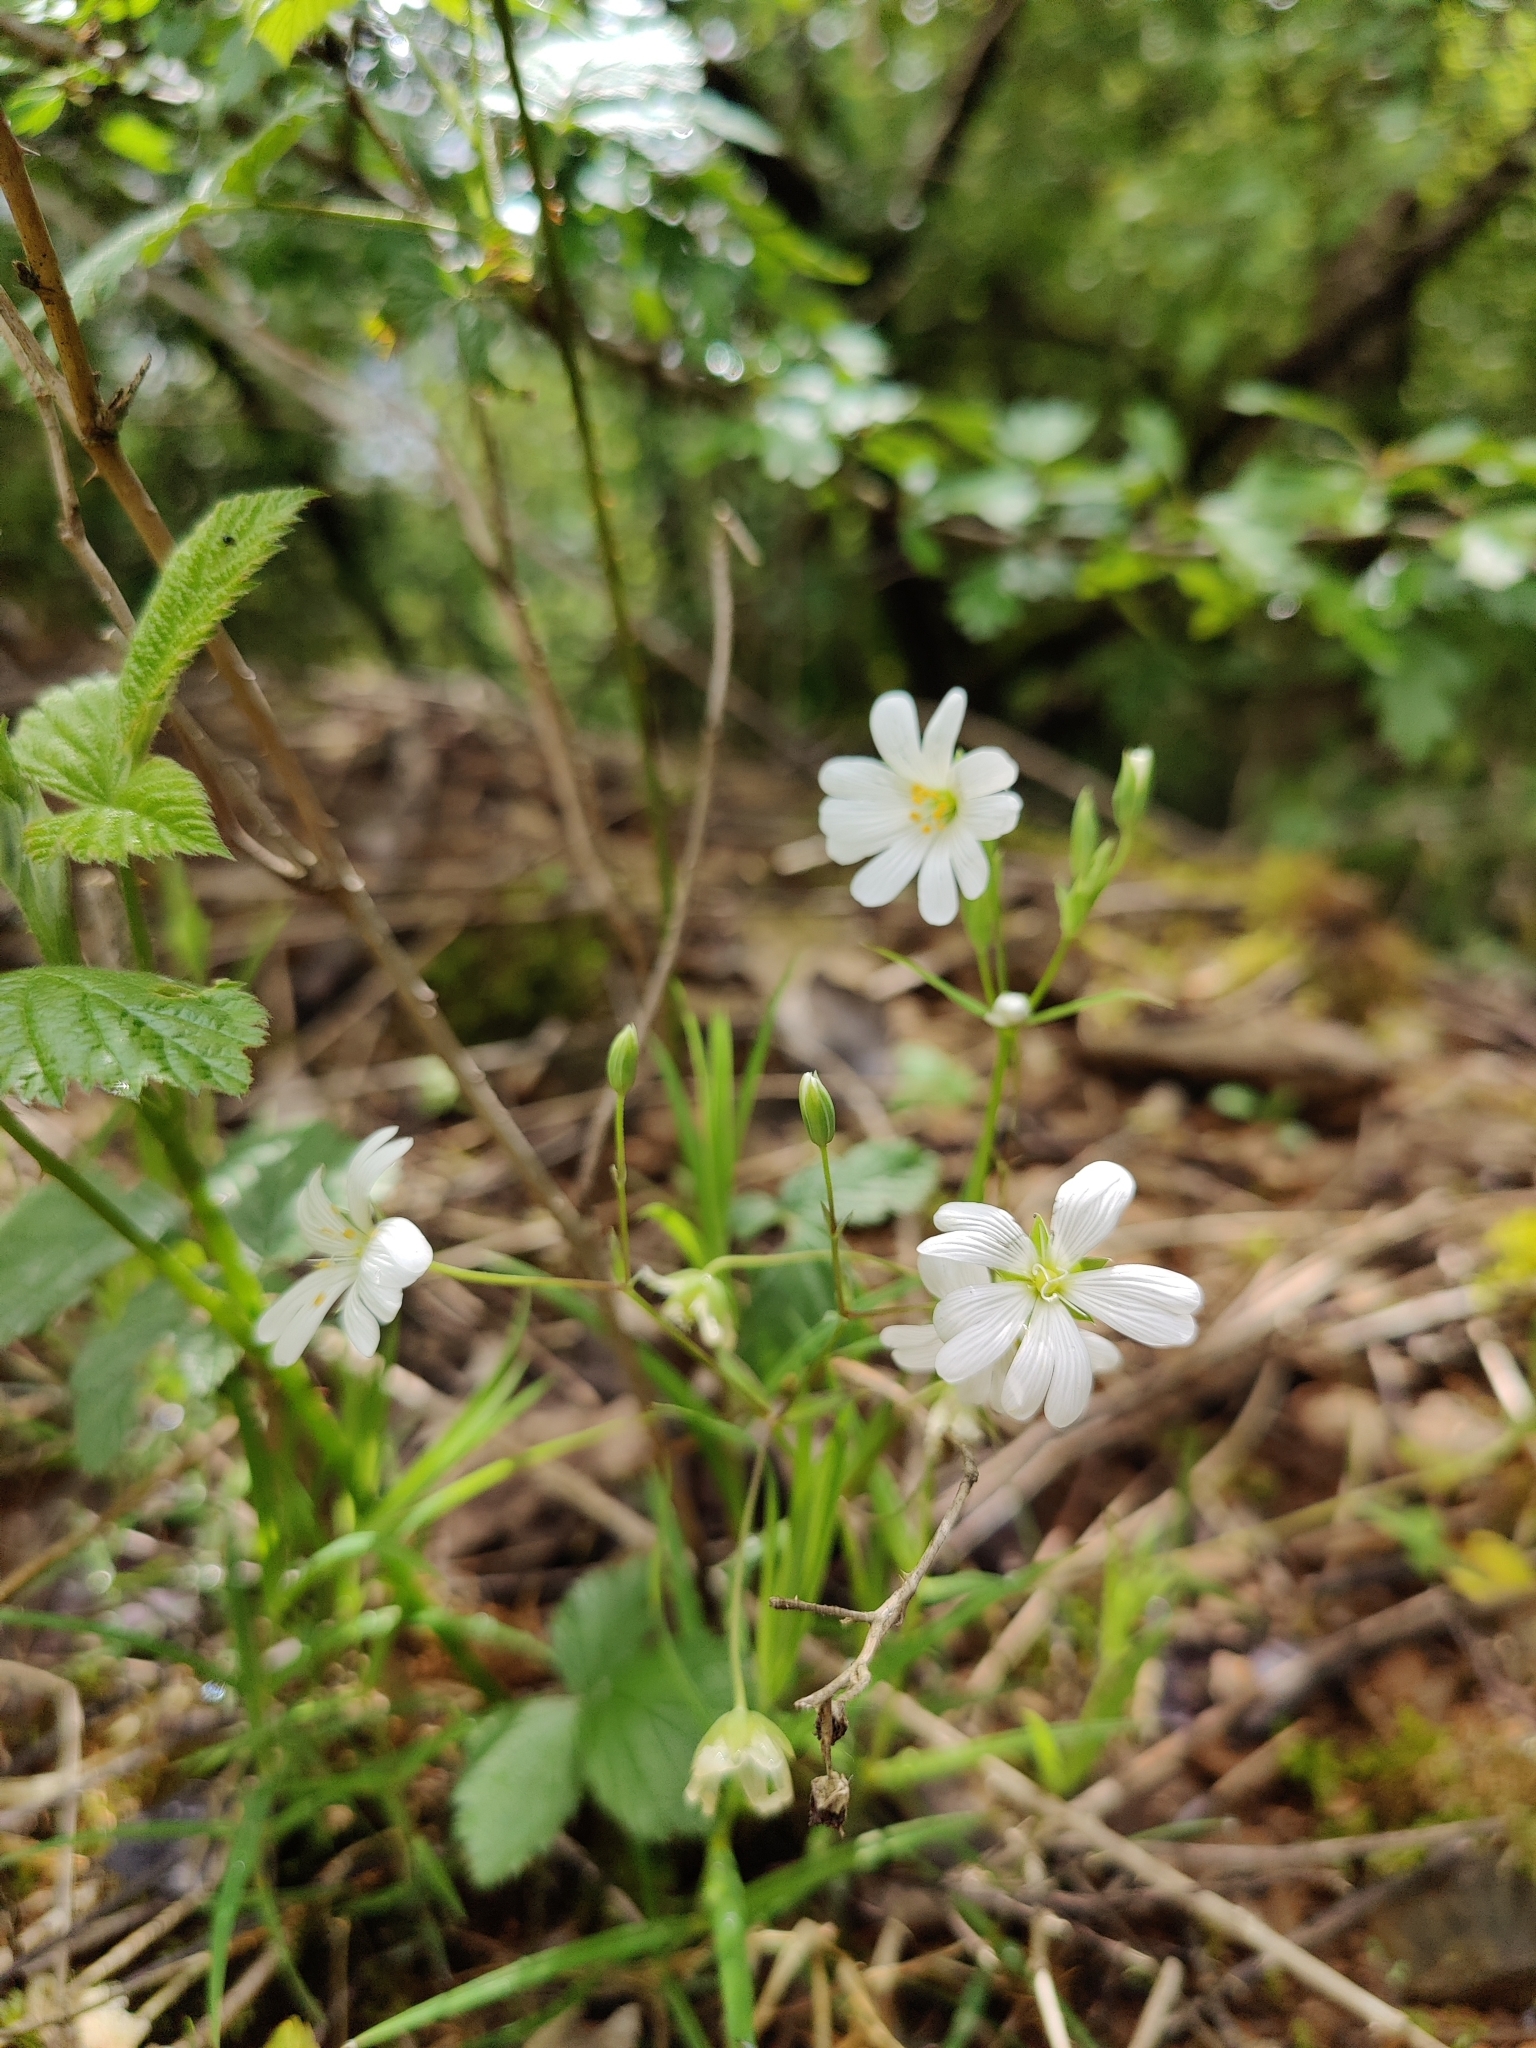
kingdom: Plantae
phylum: Tracheophyta
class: Magnoliopsida
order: Caryophyllales
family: Caryophyllaceae
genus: Rabelera
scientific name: Rabelera holostea
